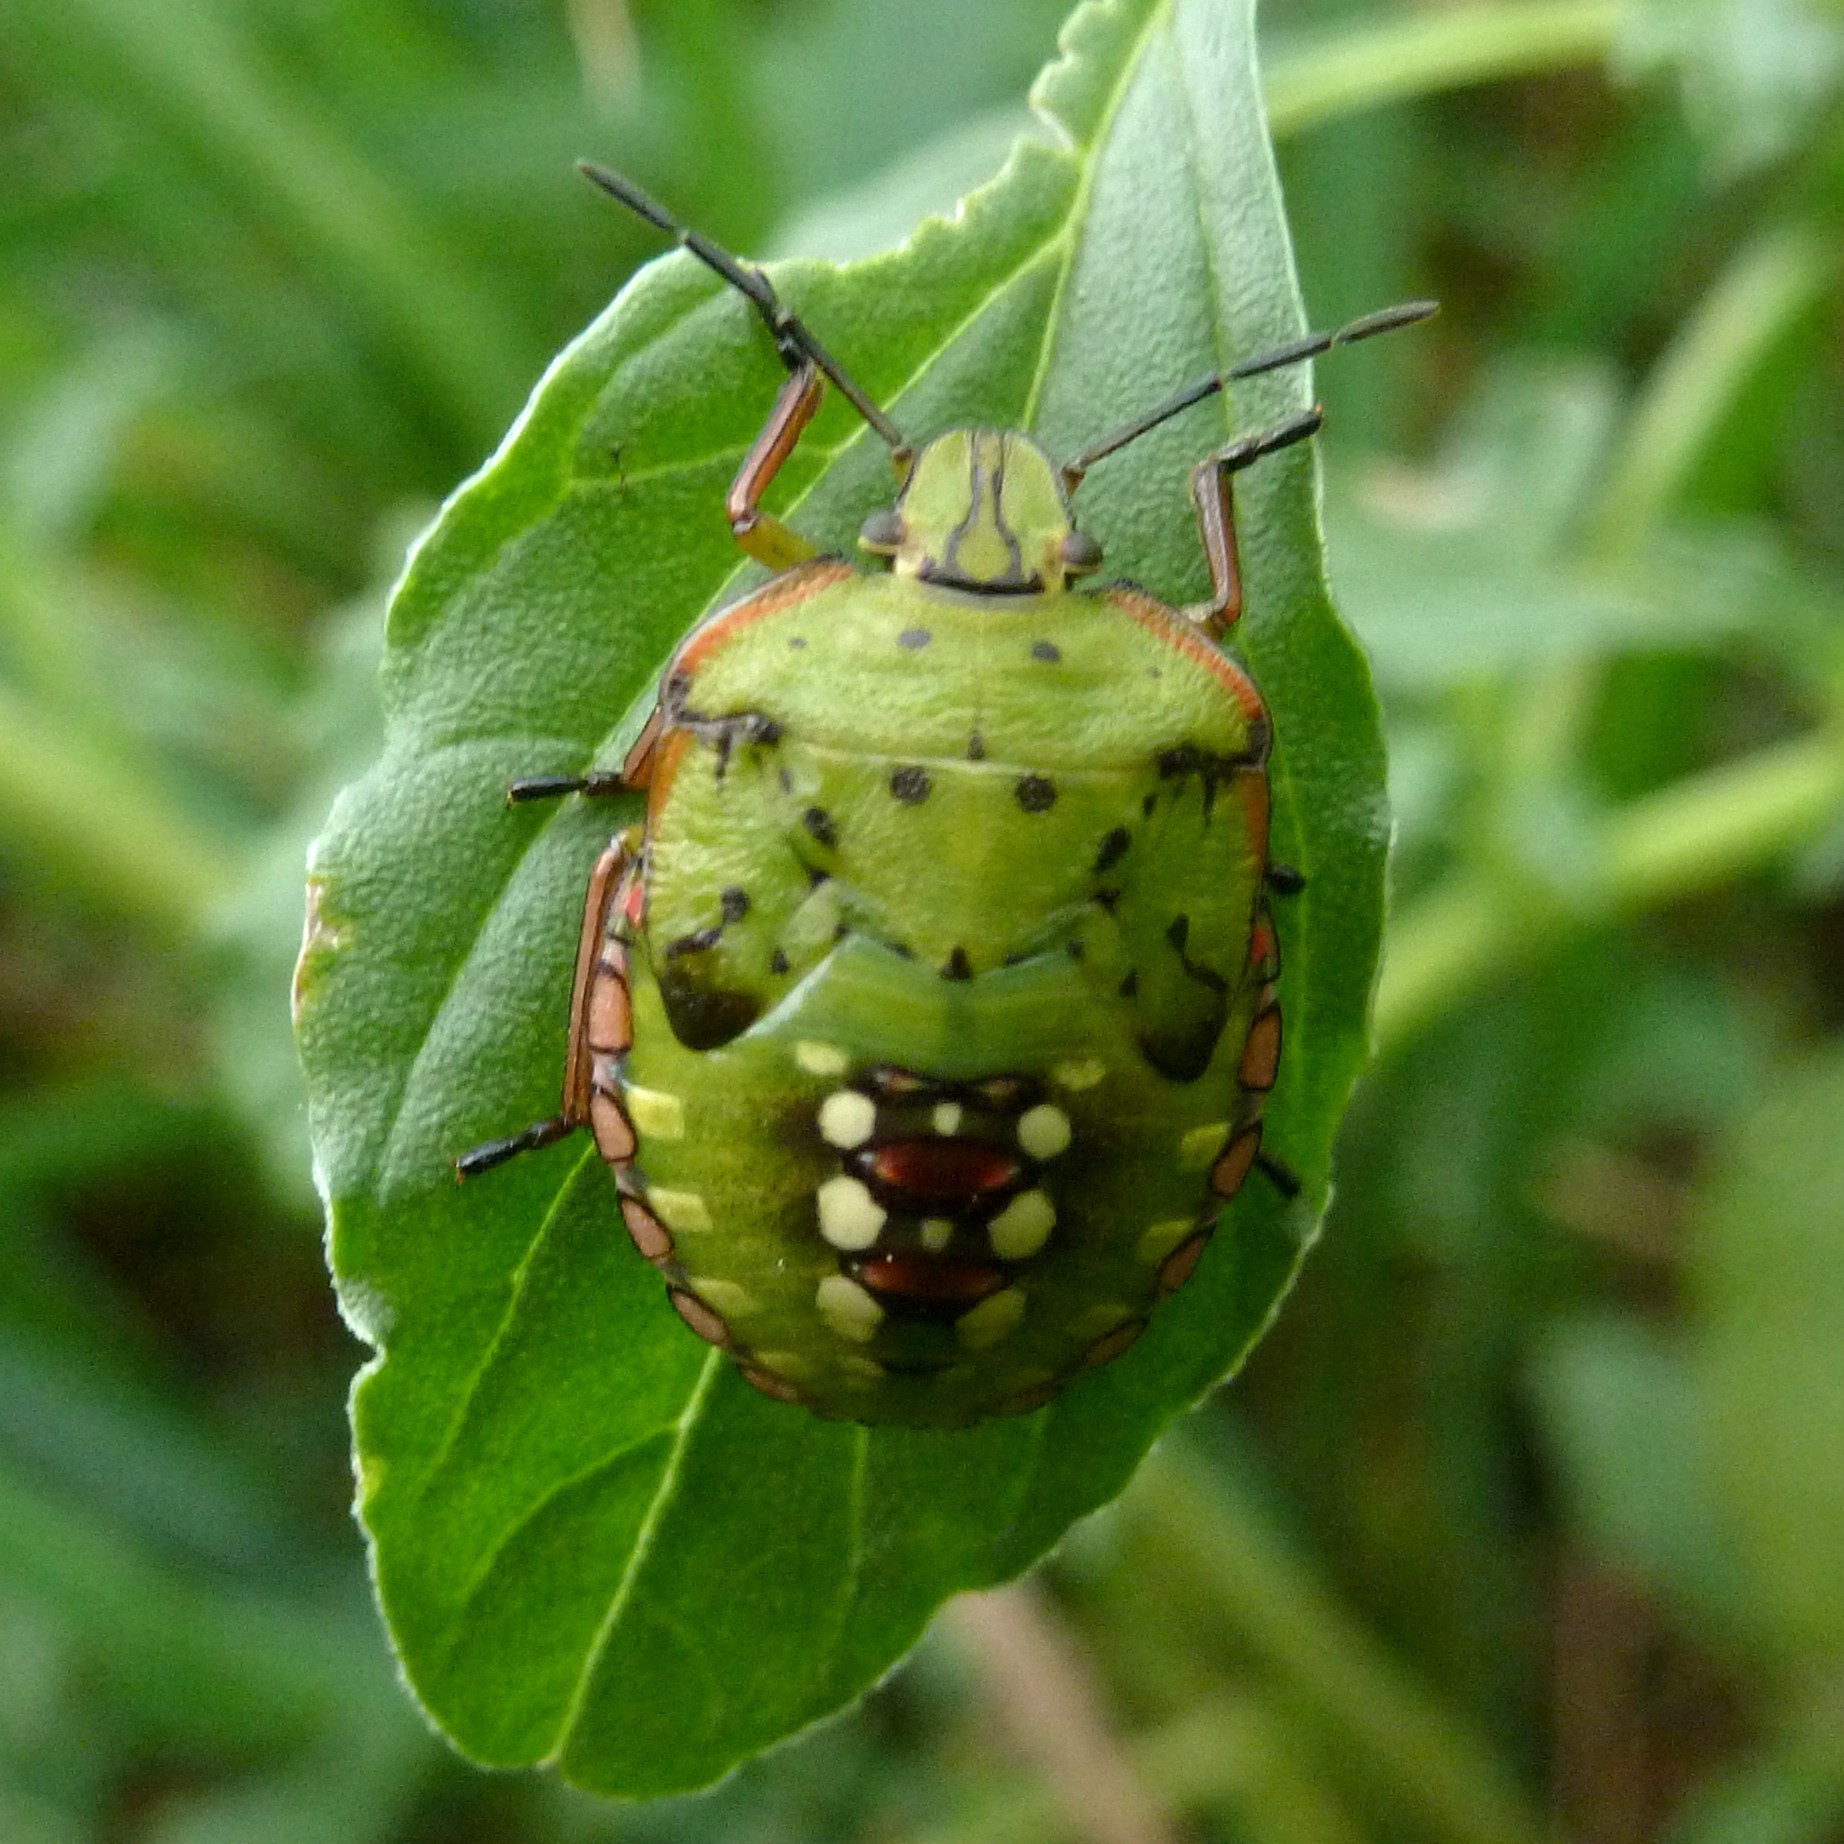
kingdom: Animalia
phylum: Arthropoda
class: Insecta
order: Hemiptera
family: Pentatomidae
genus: Nezara
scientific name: Nezara viridula
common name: Southern green stink bug
